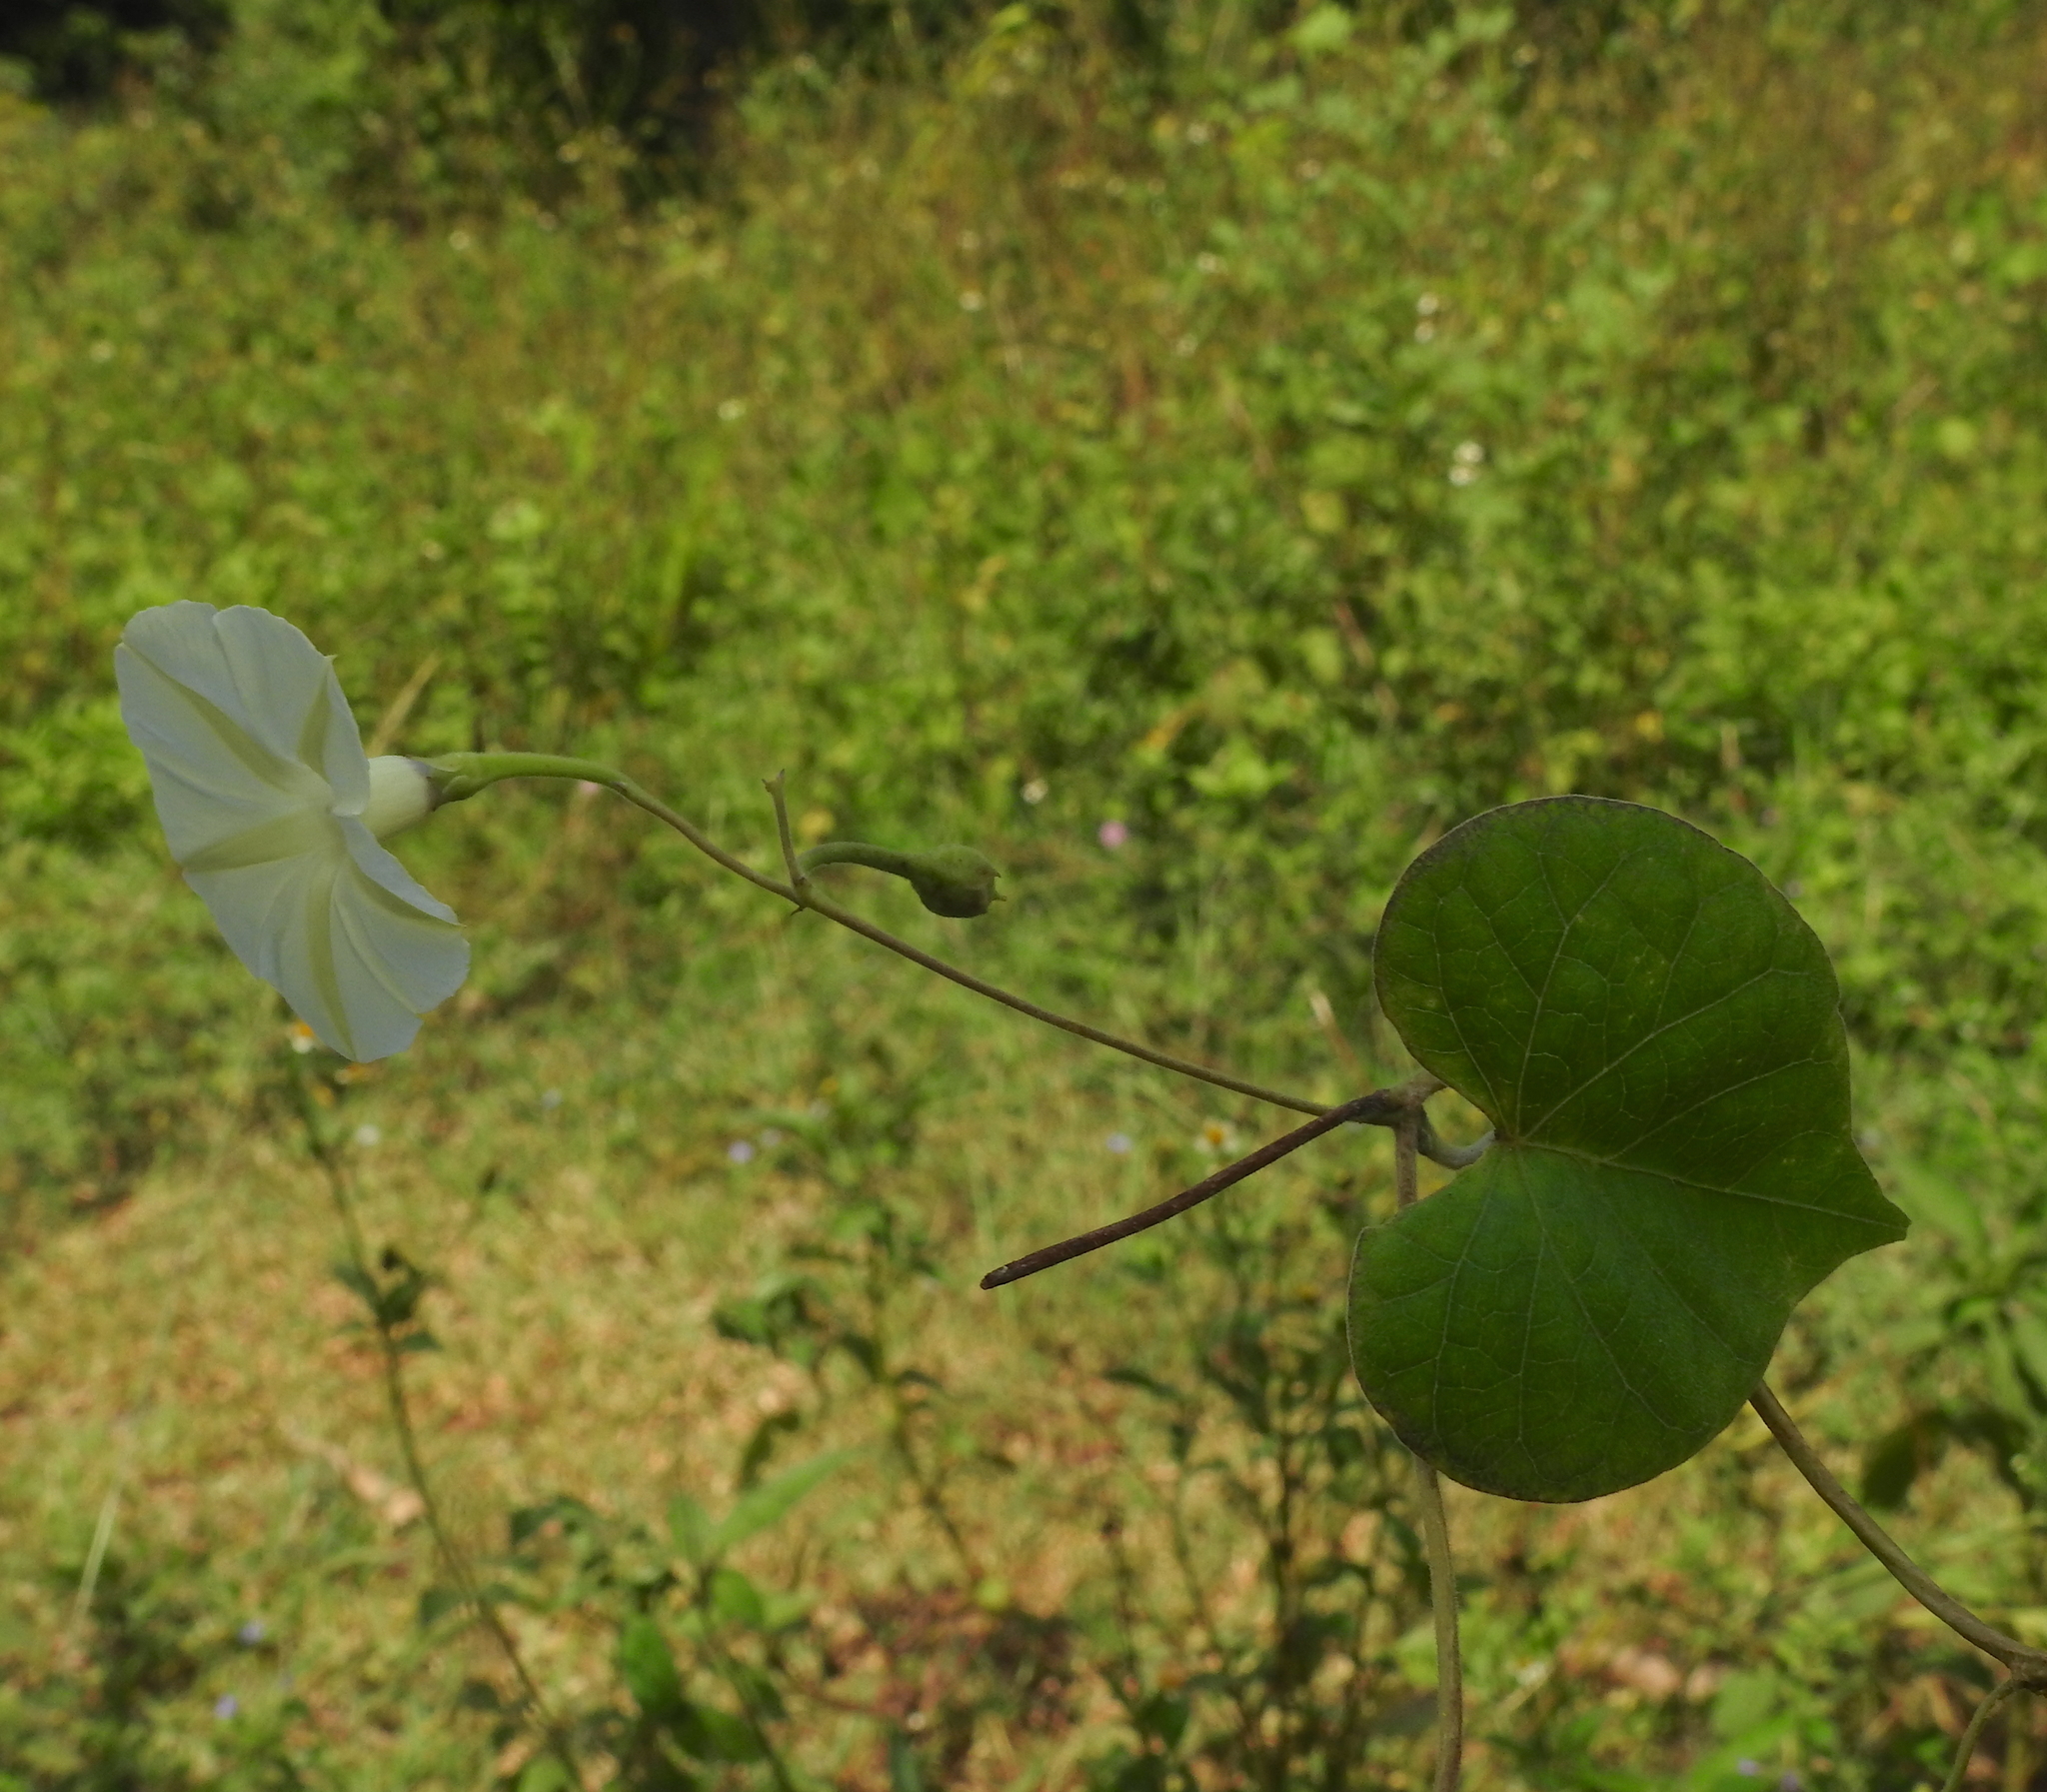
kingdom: Plantae
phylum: Tracheophyta
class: Magnoliopsida
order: Solanales
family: Convolvulaceae
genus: Ipomoea
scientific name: Ipomoea obscura
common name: Obscure morning-glory
